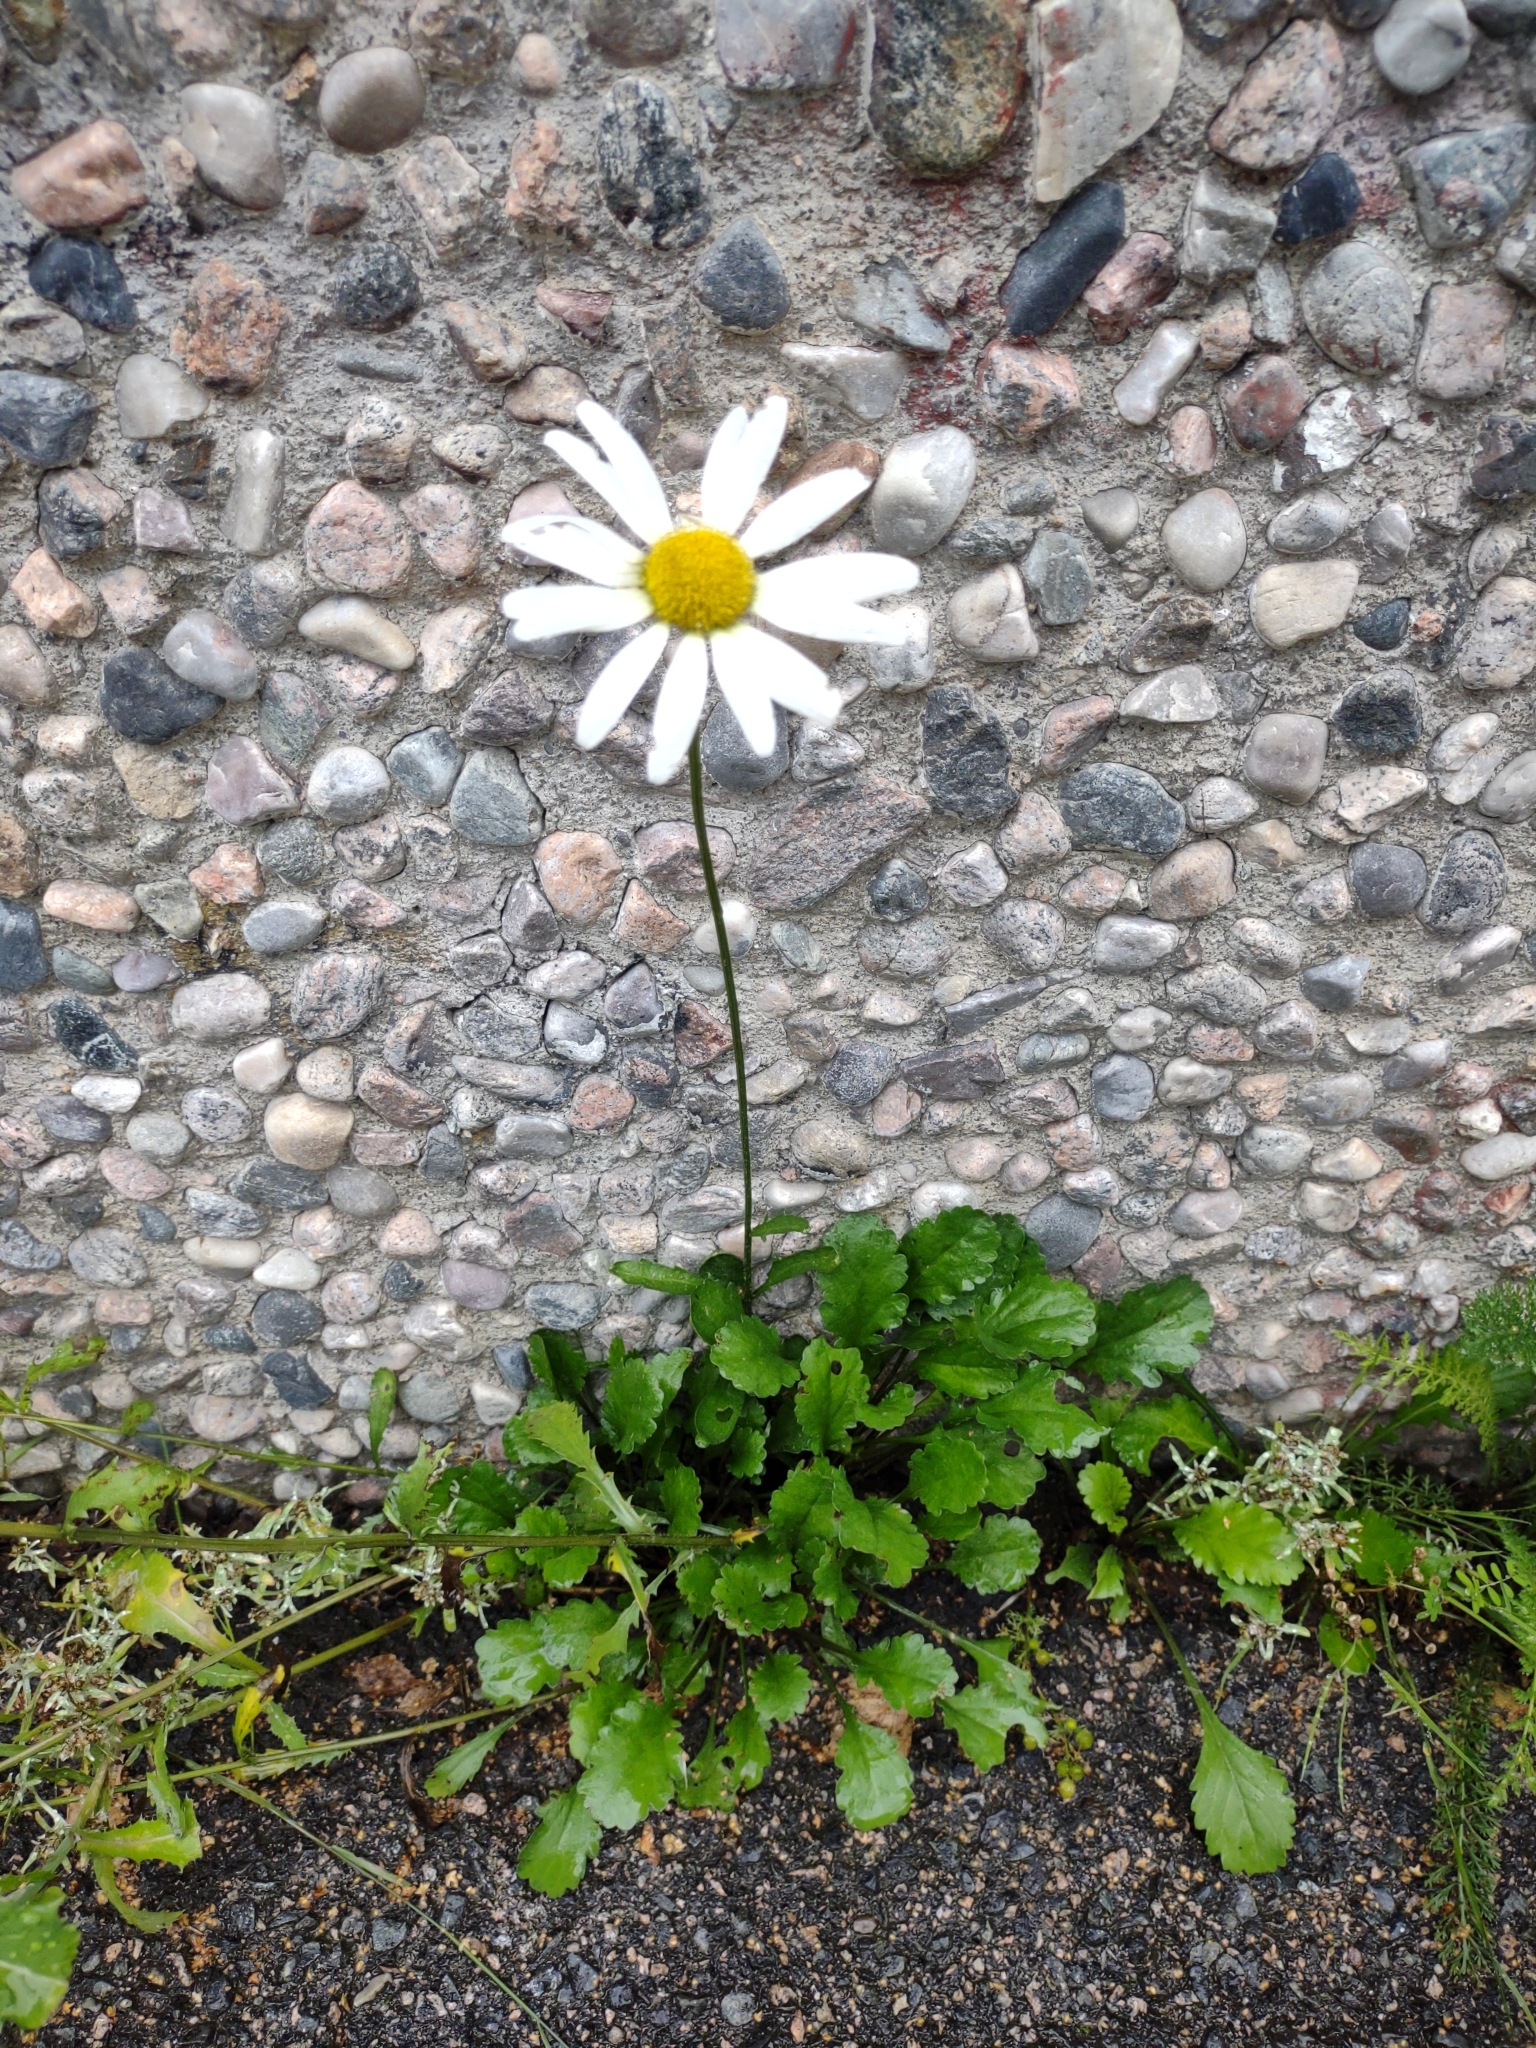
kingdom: Plantae
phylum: Tracheophyta
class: Magnoliopsida
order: Asterales
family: Asteraceae
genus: Leucanthemum
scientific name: Leucanthemum vulgare
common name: Oxeye daisy
